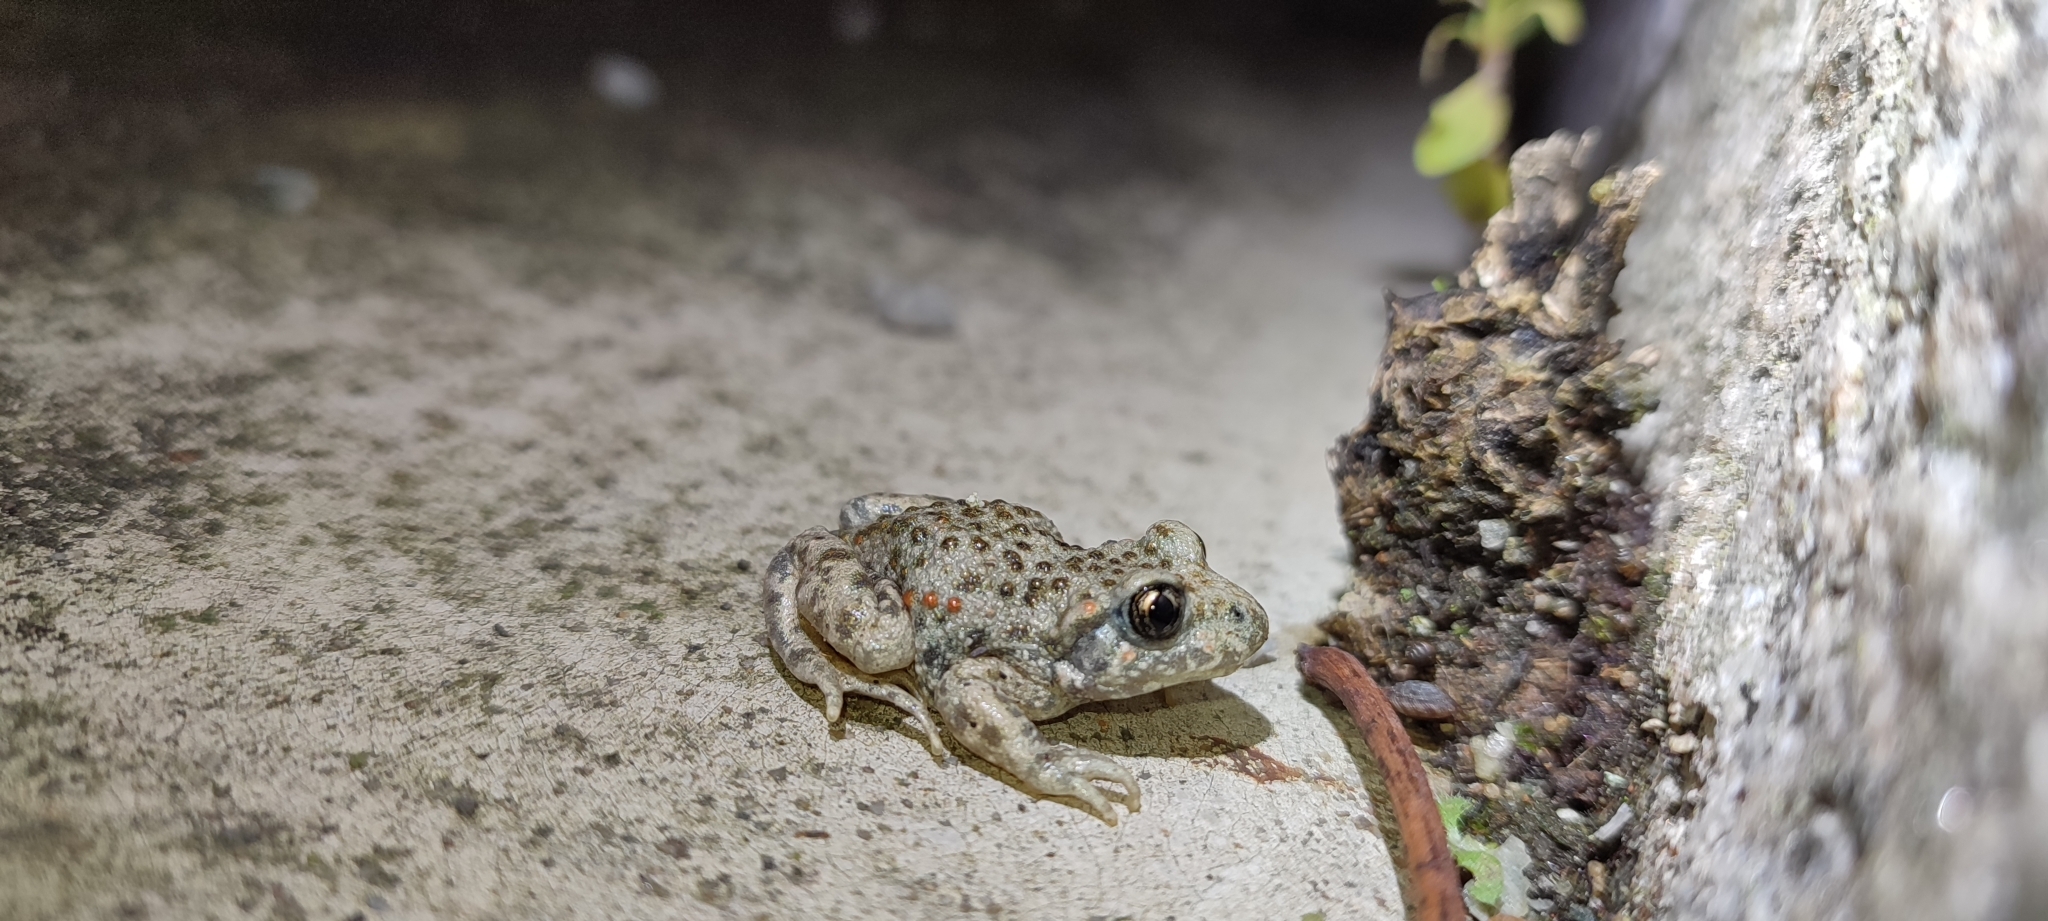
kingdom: Animalia
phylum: Chordata
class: Amphibia
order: Anura
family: Alytidae
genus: Alytes
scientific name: Alytes obstetricans
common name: Midwife toad
